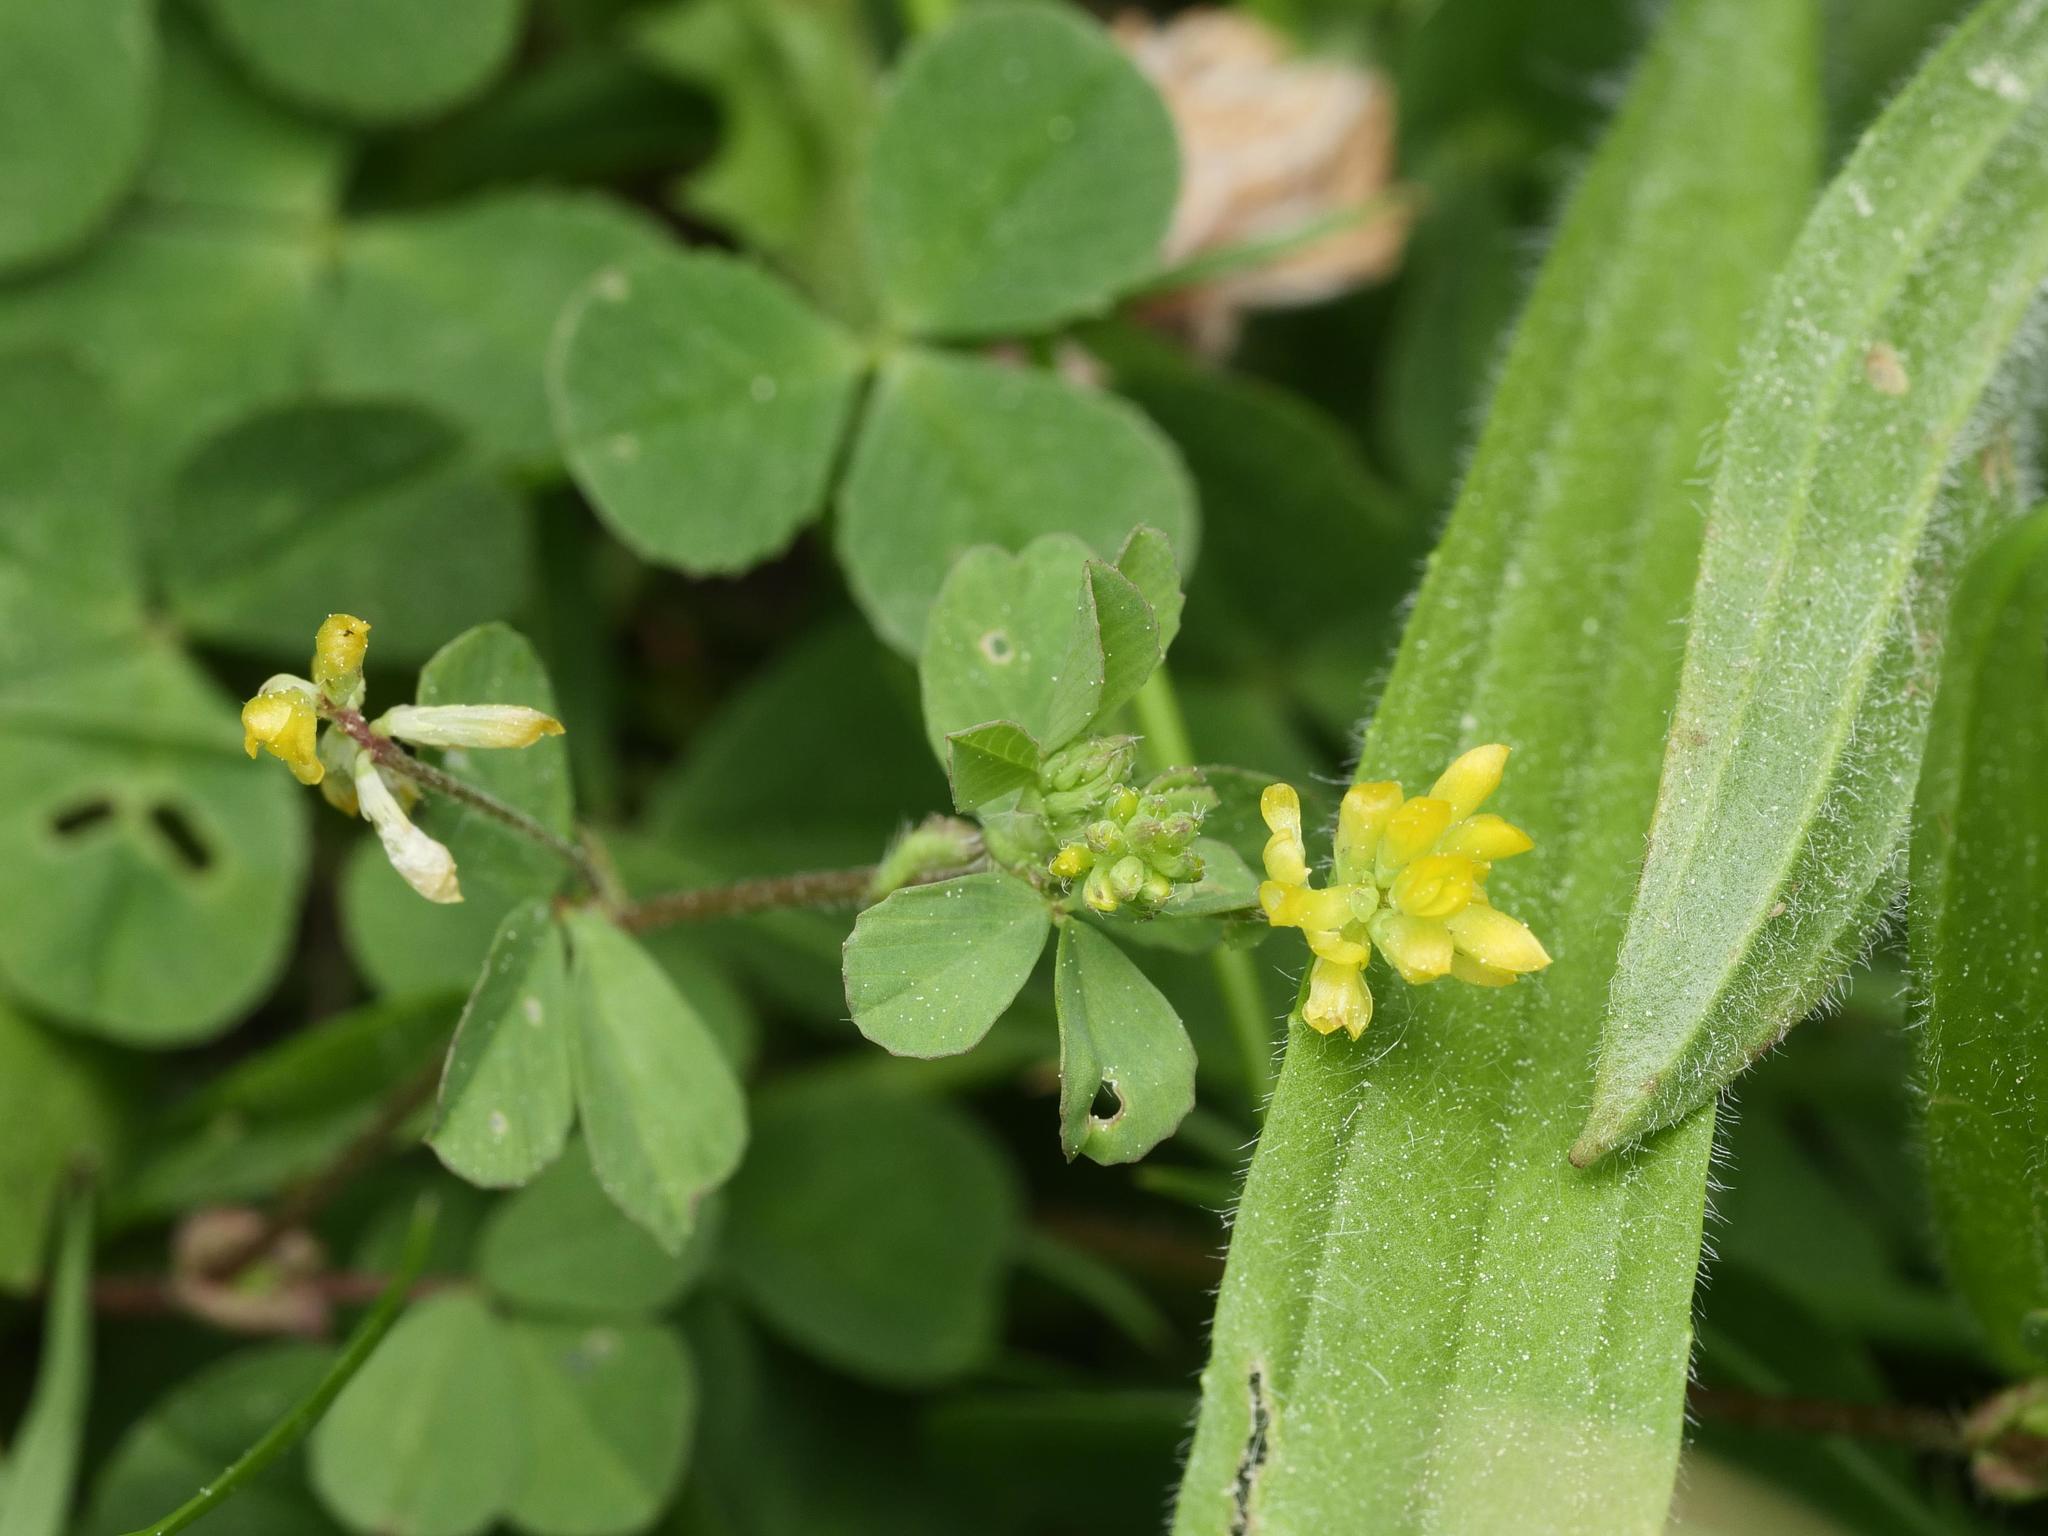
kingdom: Plantae
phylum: Tracheophyta
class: Magnoliopsida
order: Fabales
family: Fabaceae
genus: Trifolium
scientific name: Trifolium dubium
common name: Suckling clover
